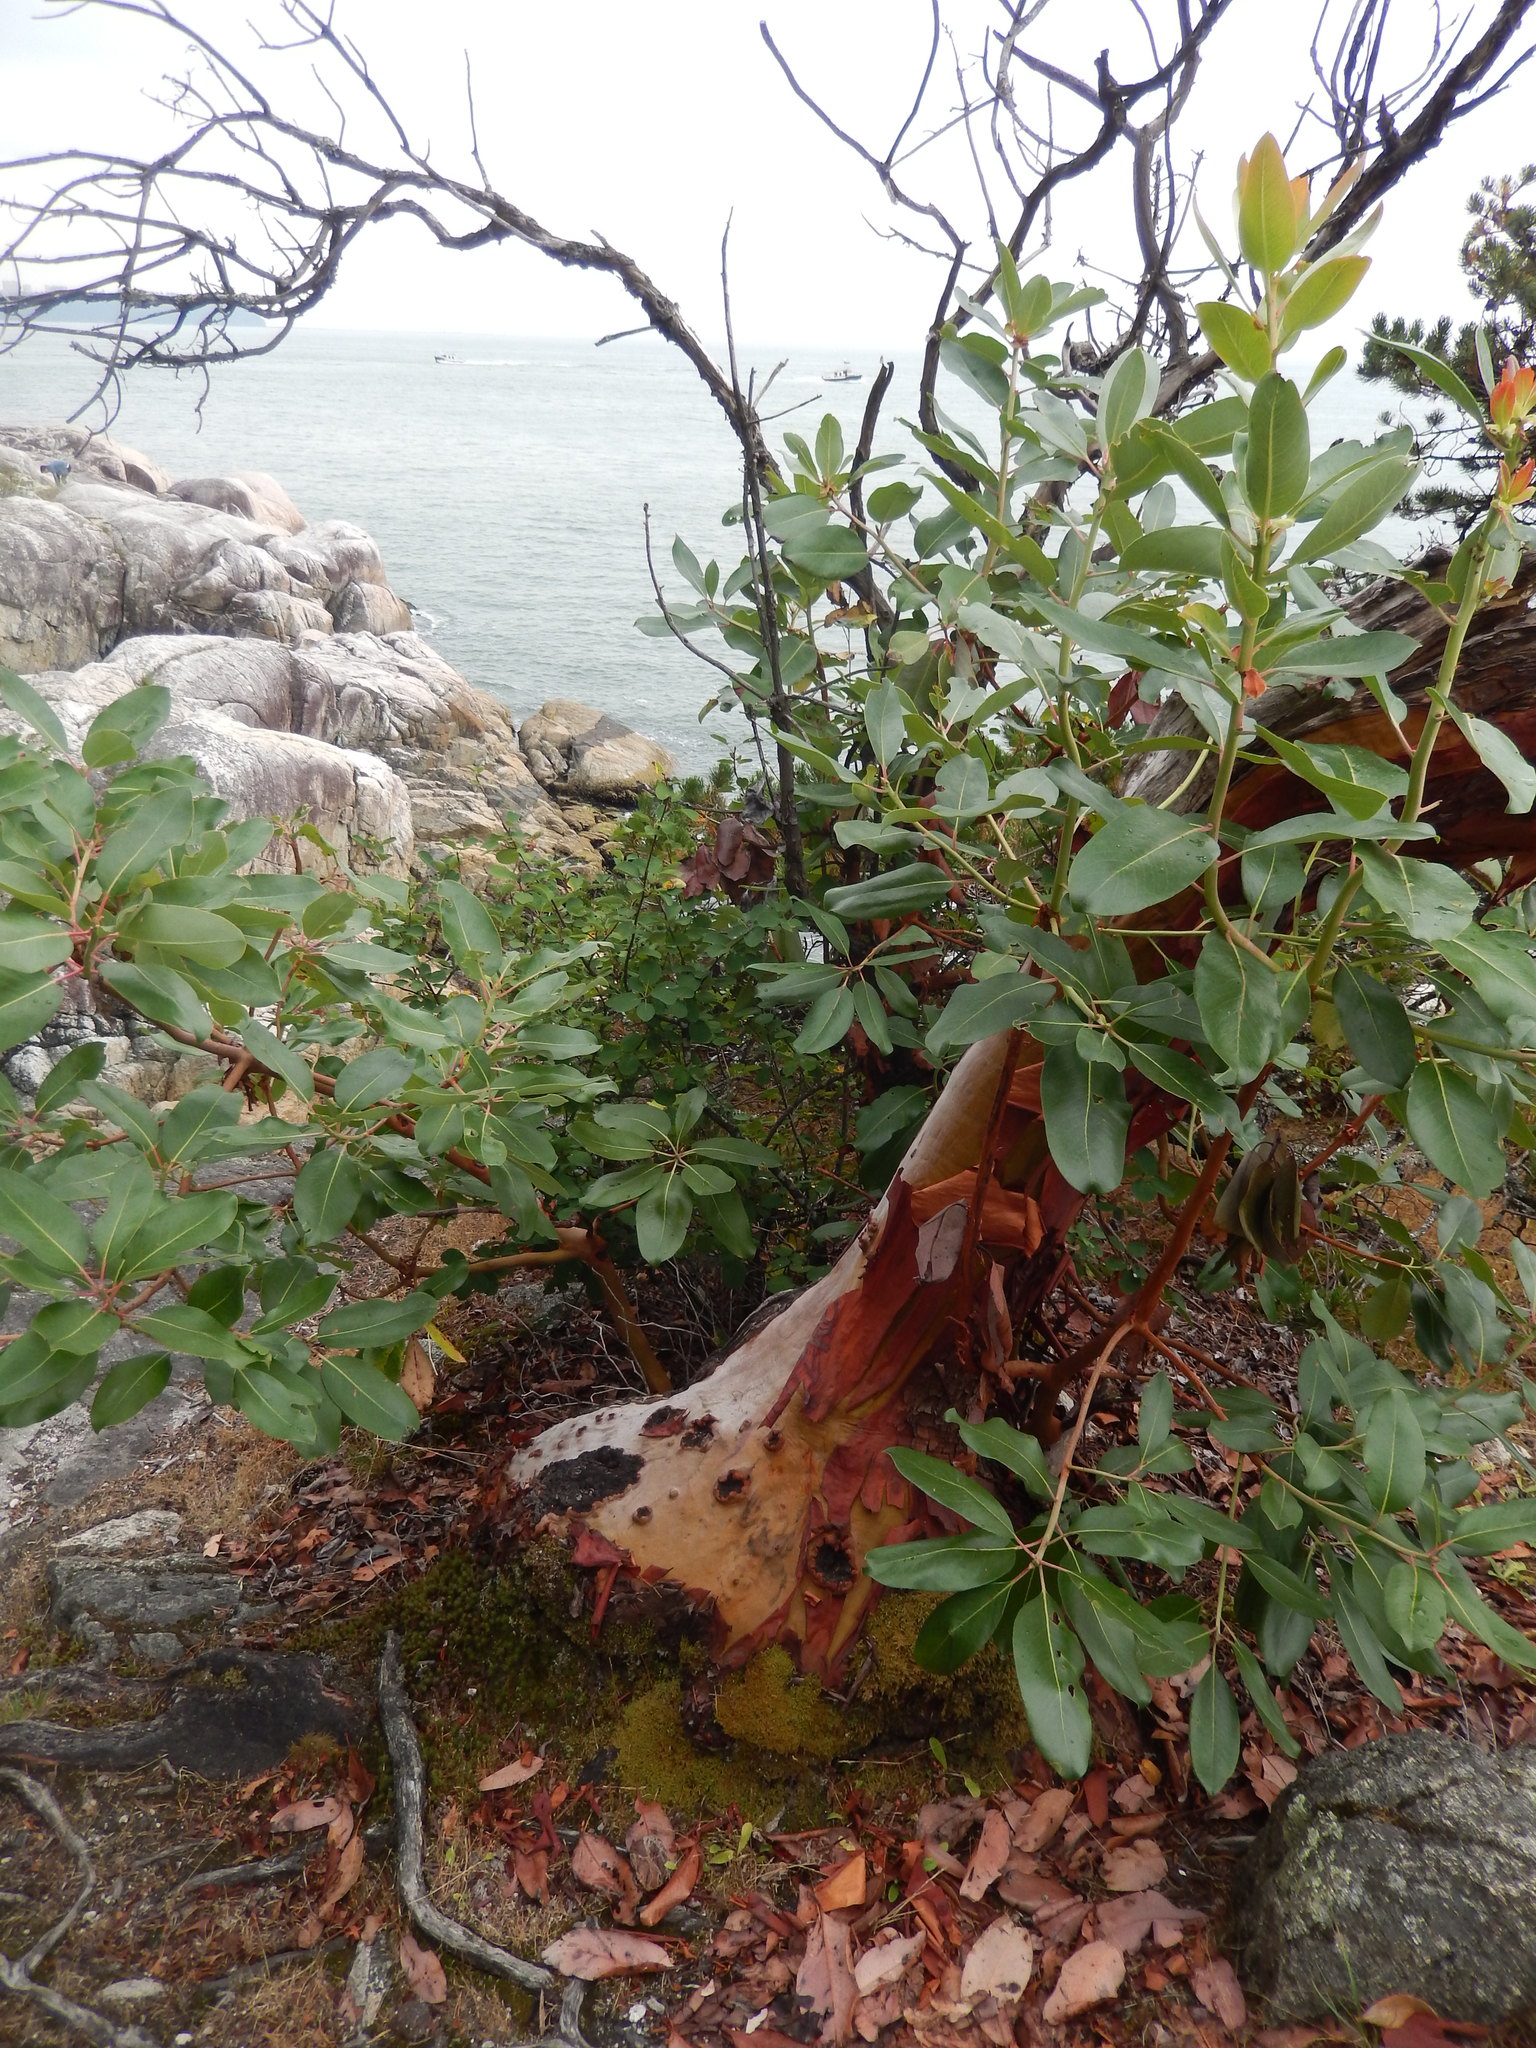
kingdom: Plantae
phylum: Tracheophyta
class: Magnoliopsida
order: Ericales
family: Ericaceae
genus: Arbutus
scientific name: Arbutus menziesii
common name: Pacific madrone
